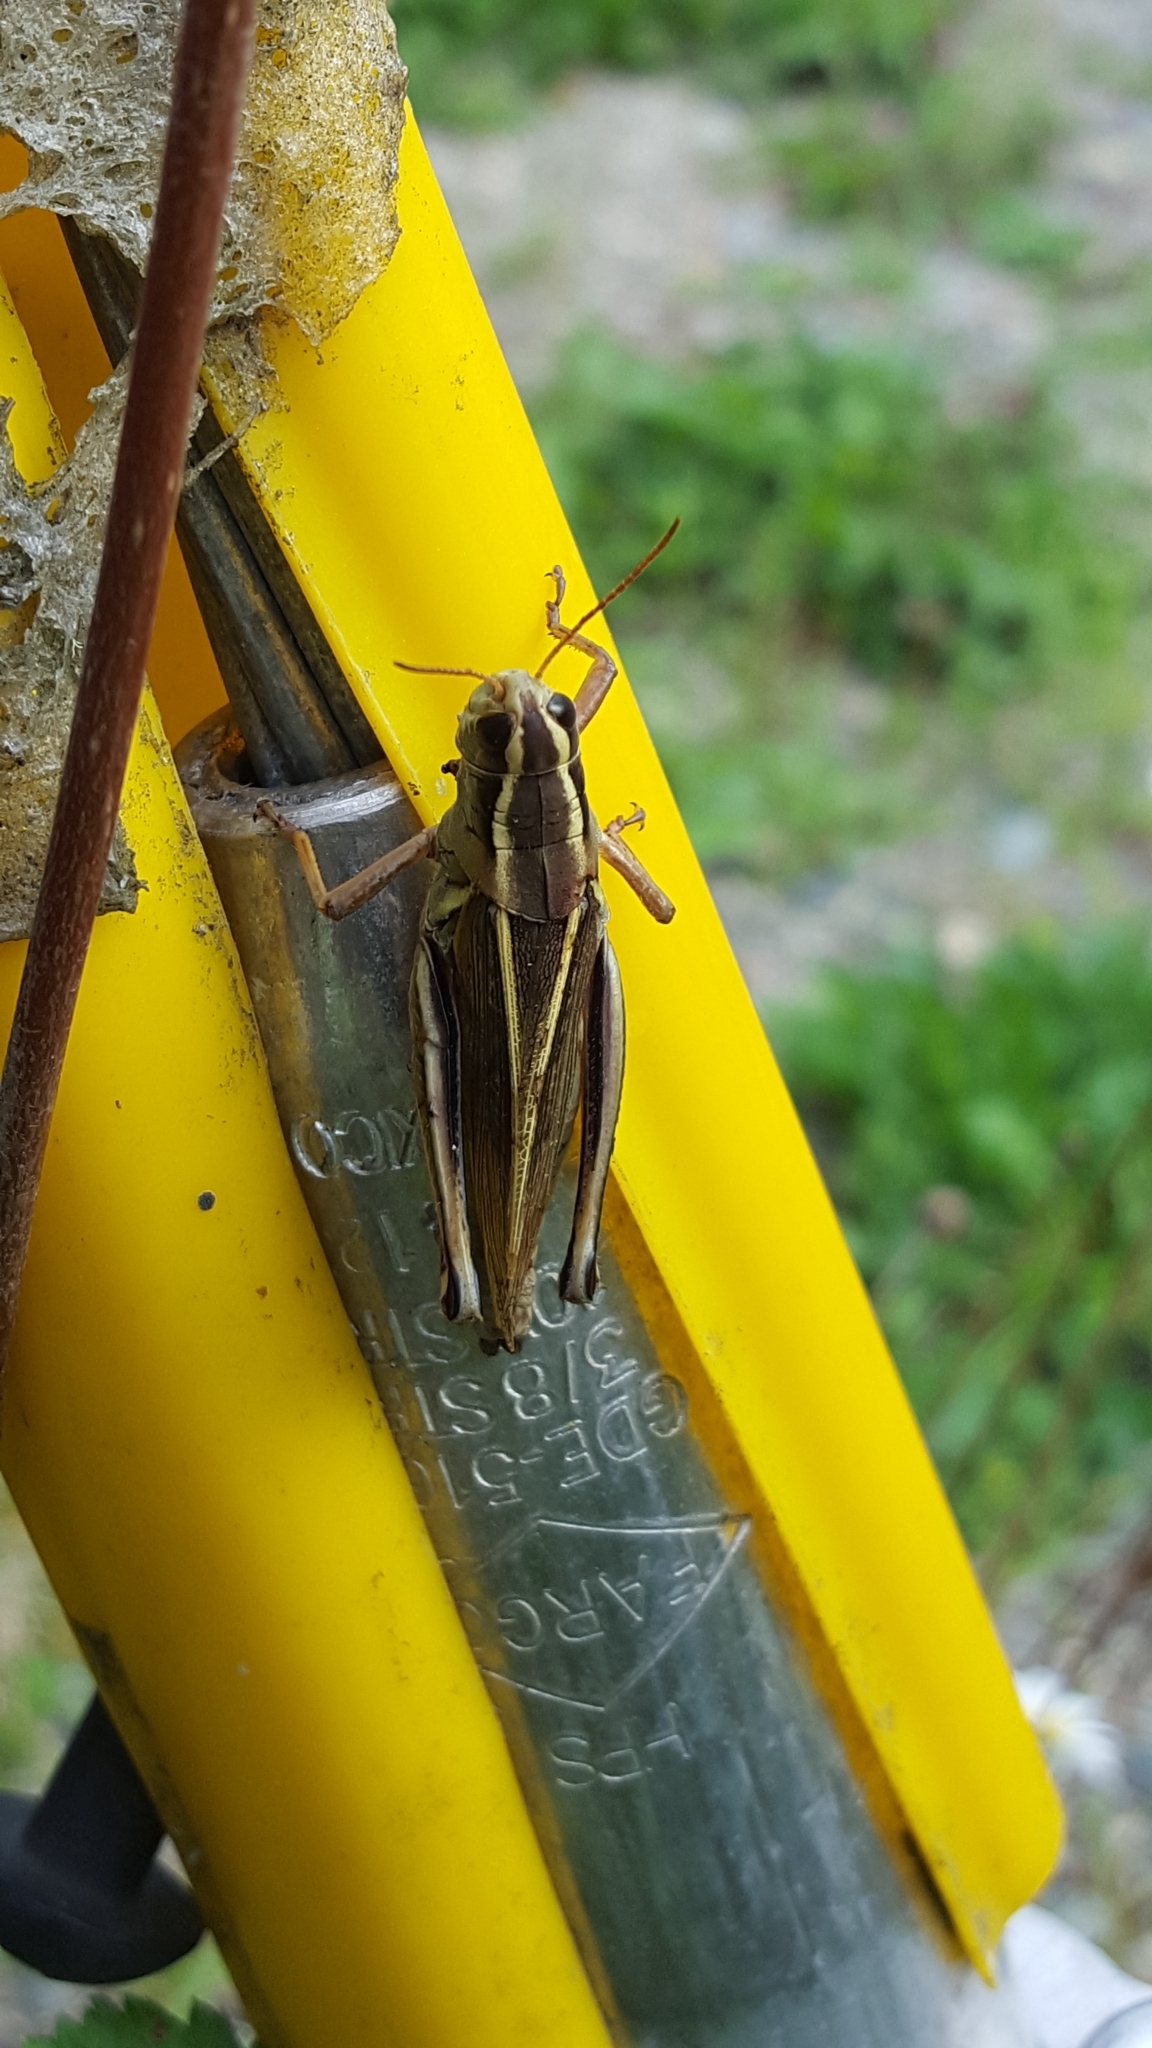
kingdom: Animalia
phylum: Arthropoda
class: Insecta
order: Orthoptera
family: Acrididae
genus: Melanoplus
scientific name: Melanoplus bivittatus
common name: Two-striped grasshopper
